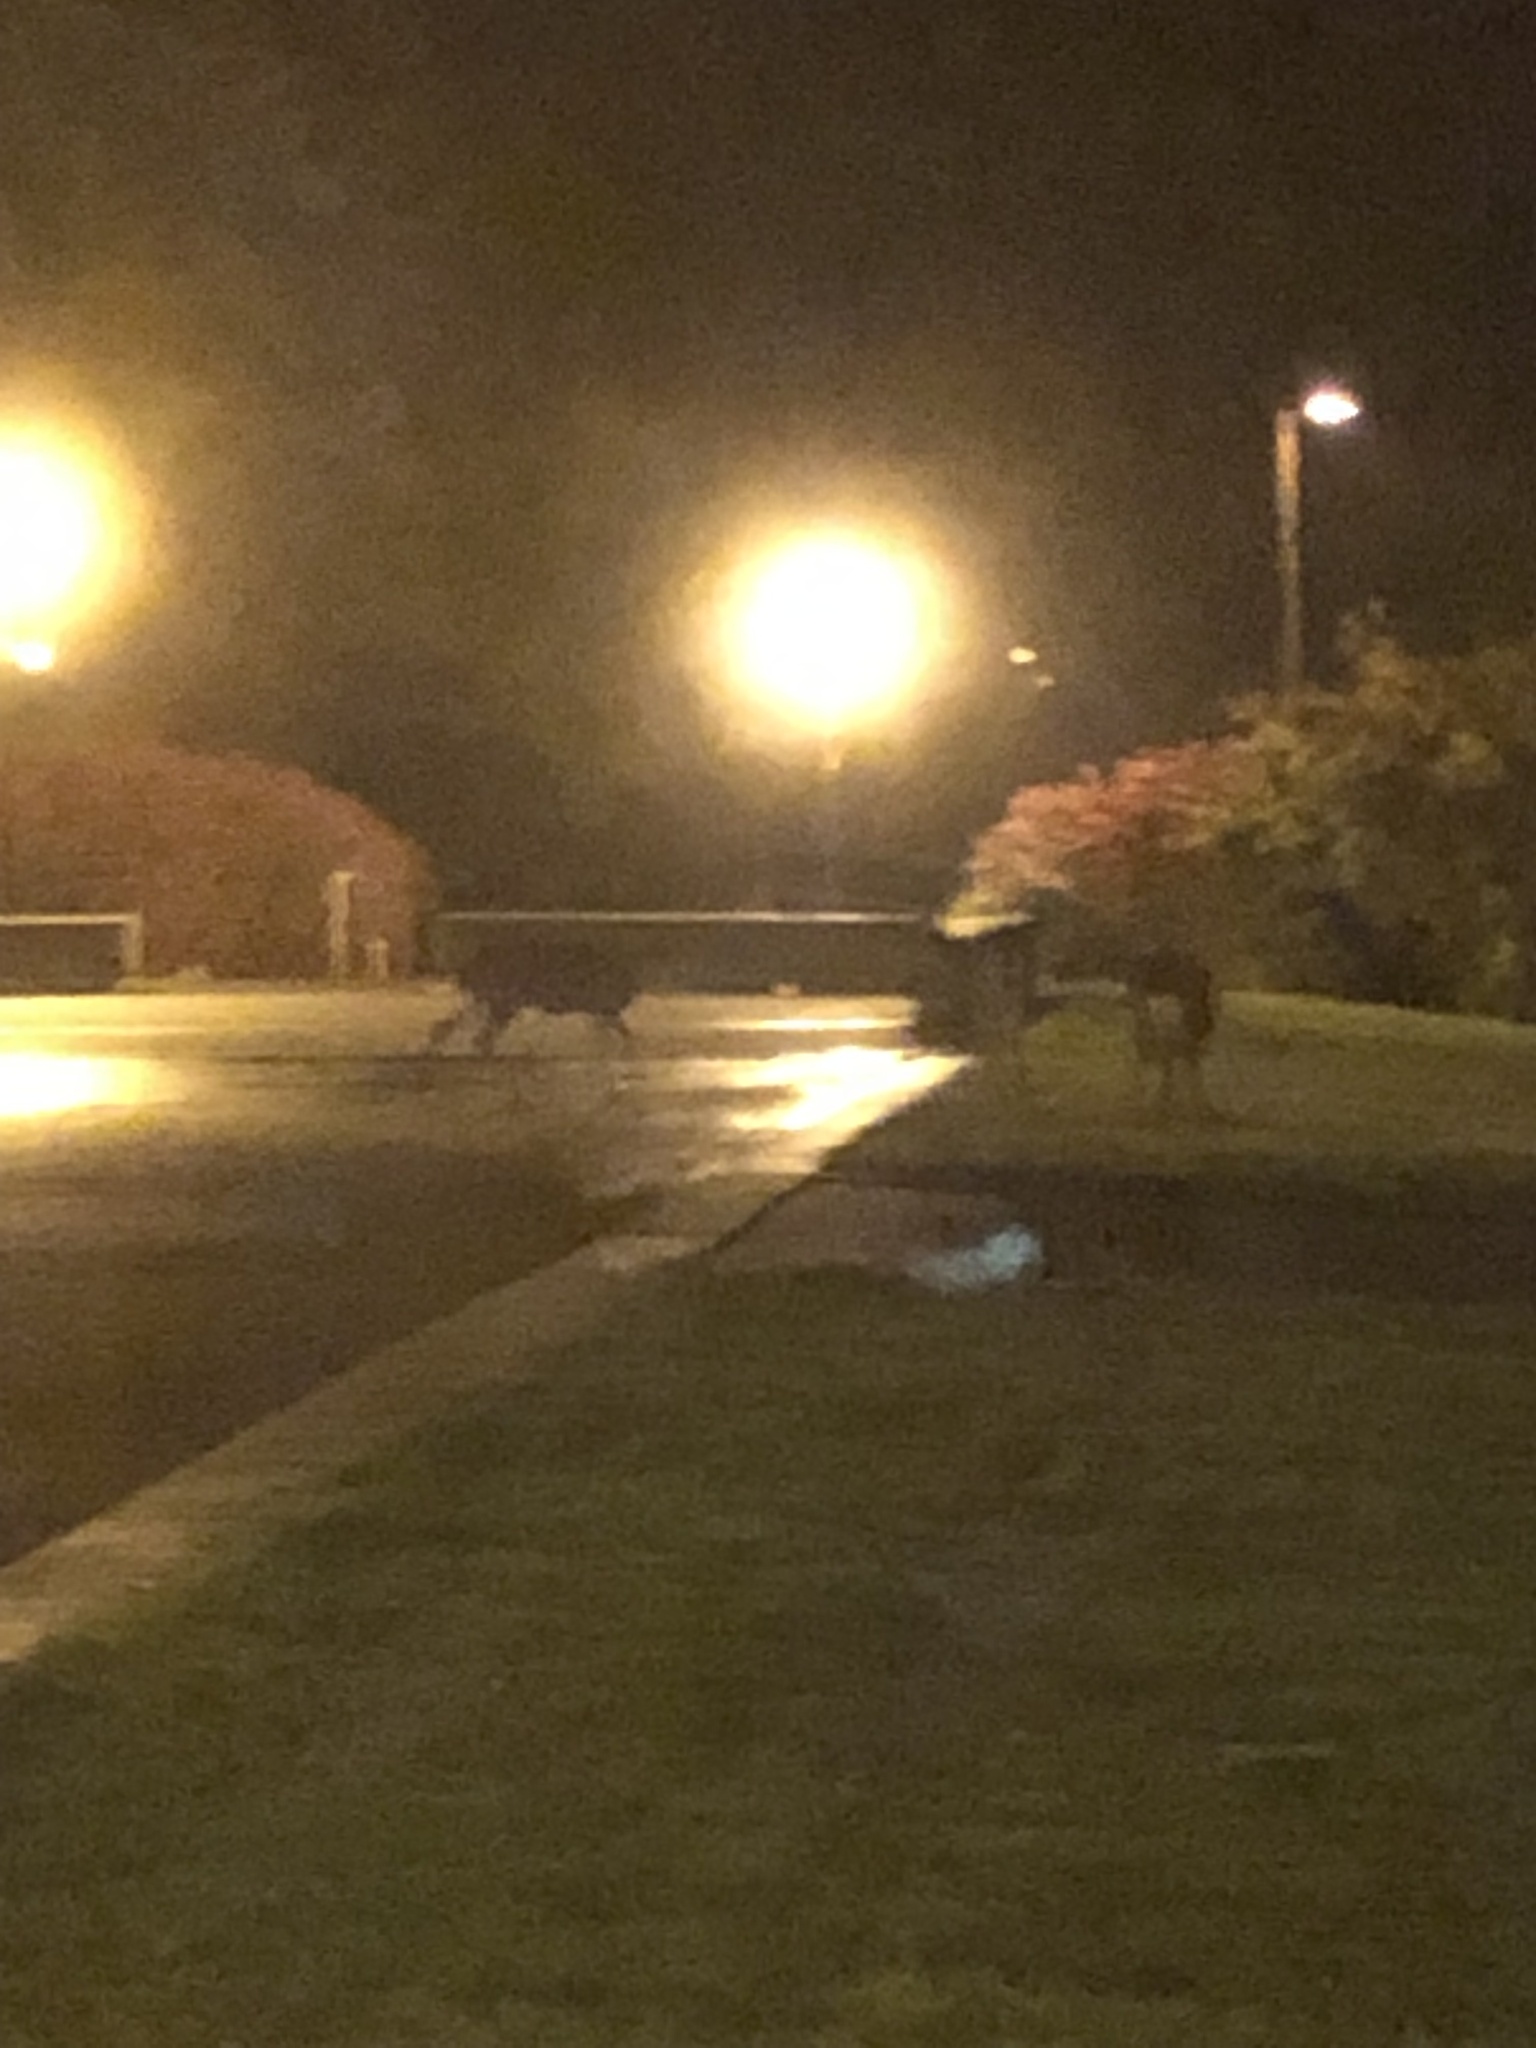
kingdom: Animalia
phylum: Chordata
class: Mammalia
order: Artiodactyla
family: Cervidae
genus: Odocoileus
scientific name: Odocoileus hemionus
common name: Mule deer
